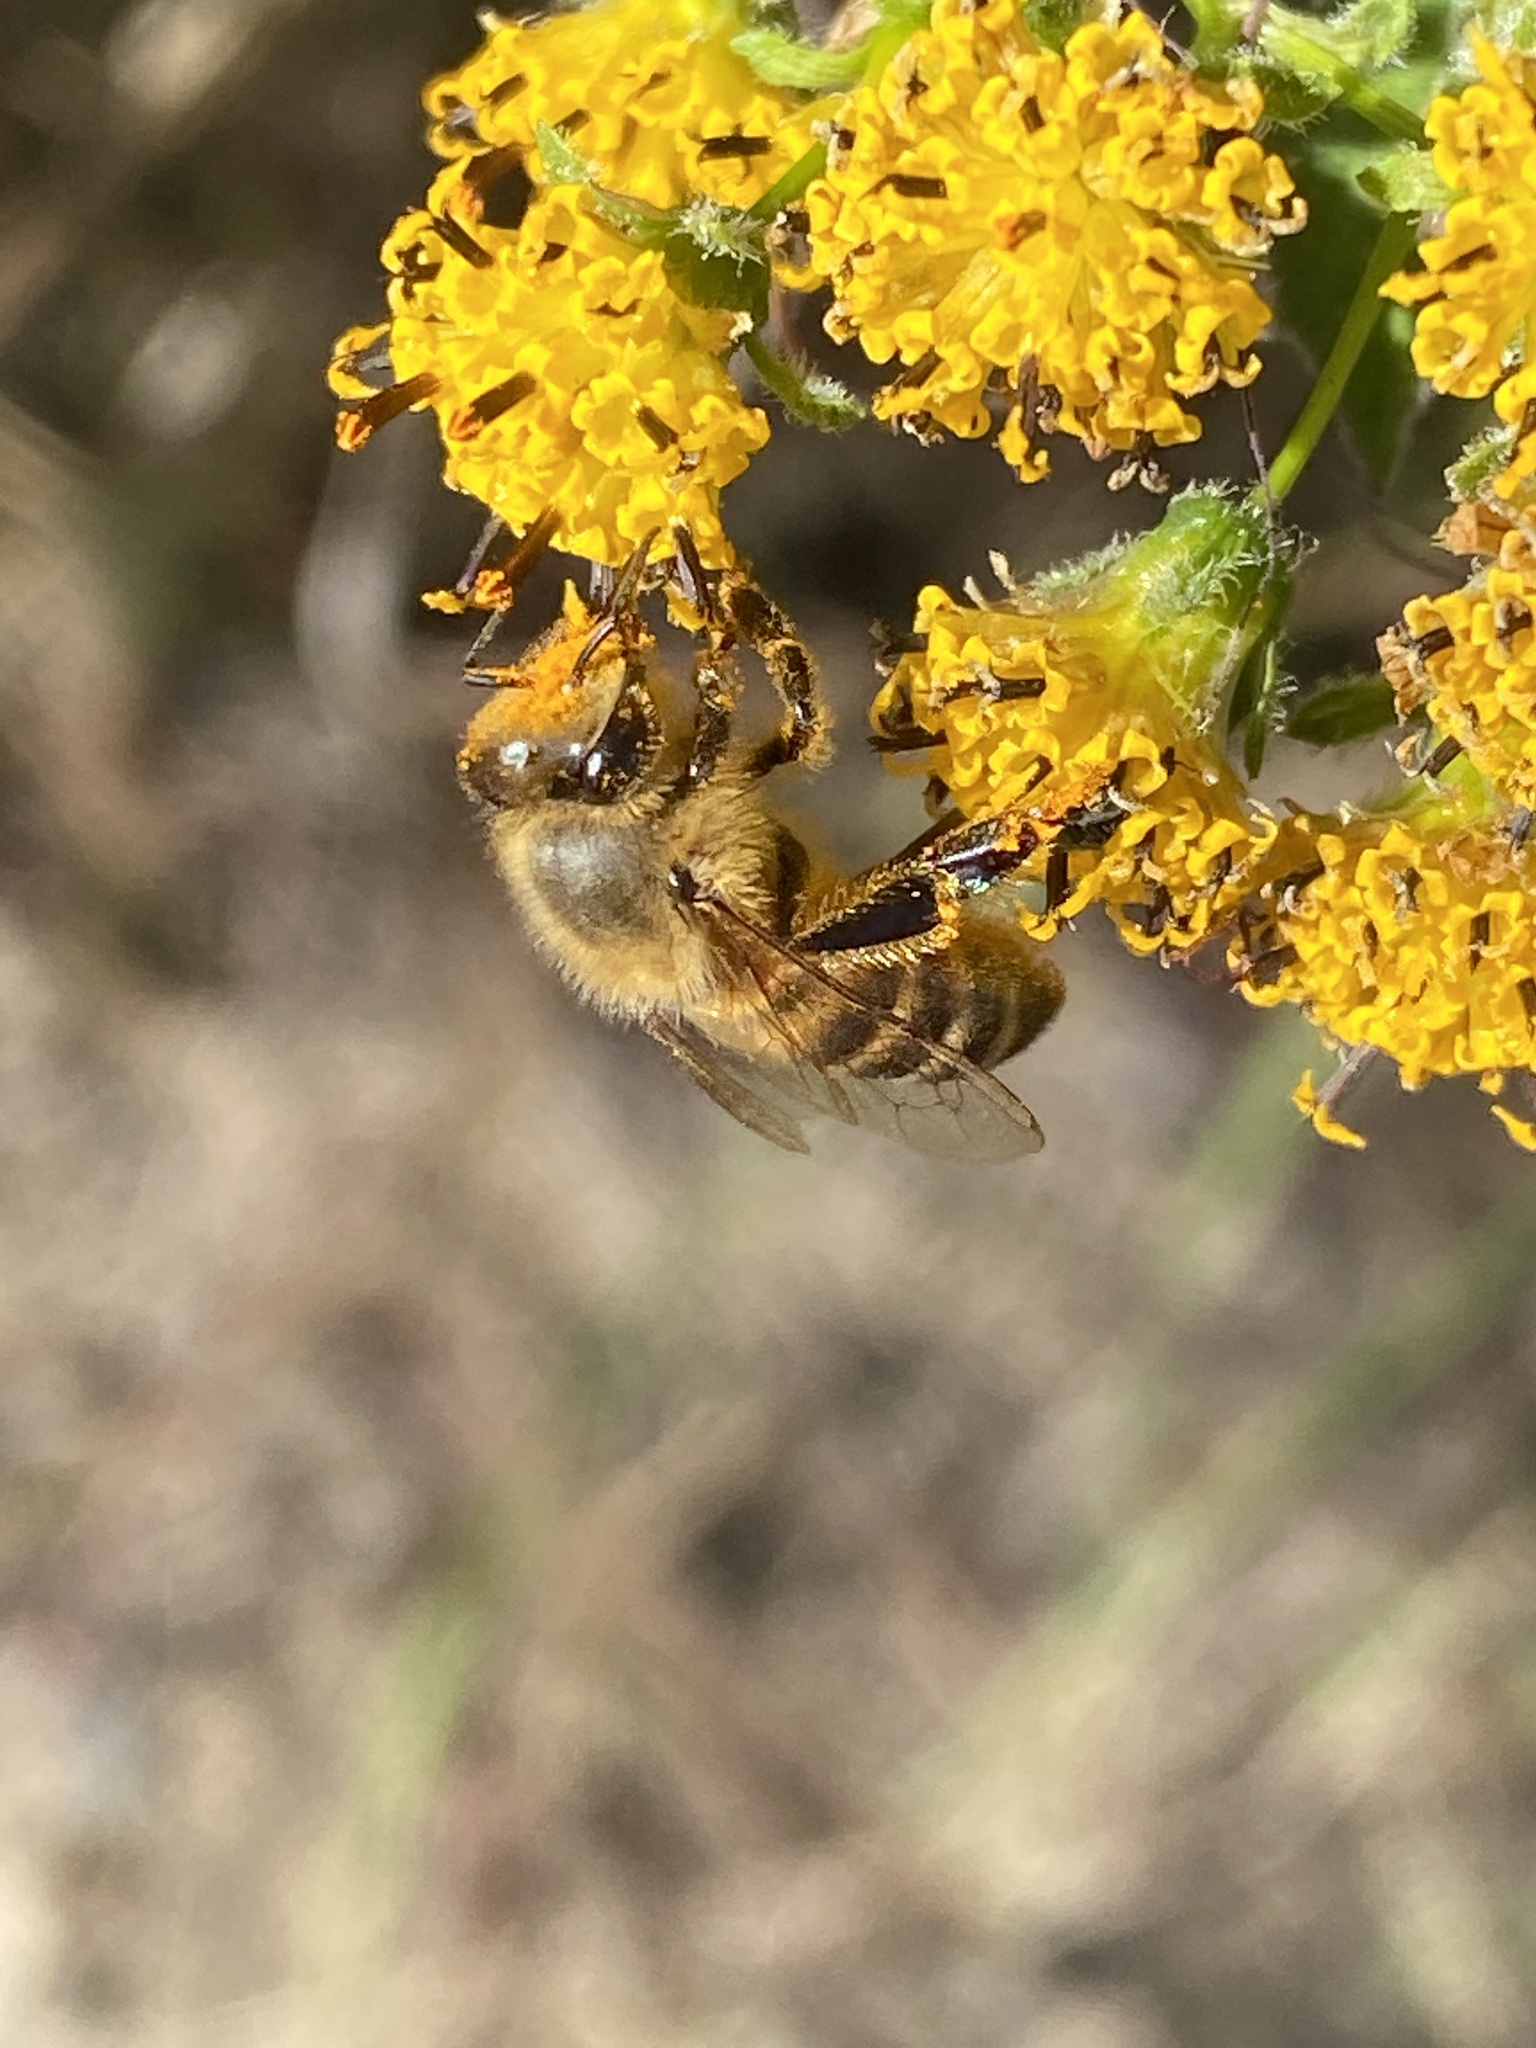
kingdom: Animalia
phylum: Arthropoda
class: Insecta
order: Hymenoptera
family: Apidae
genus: Apis
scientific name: Apis mellifera
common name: Honey bee
